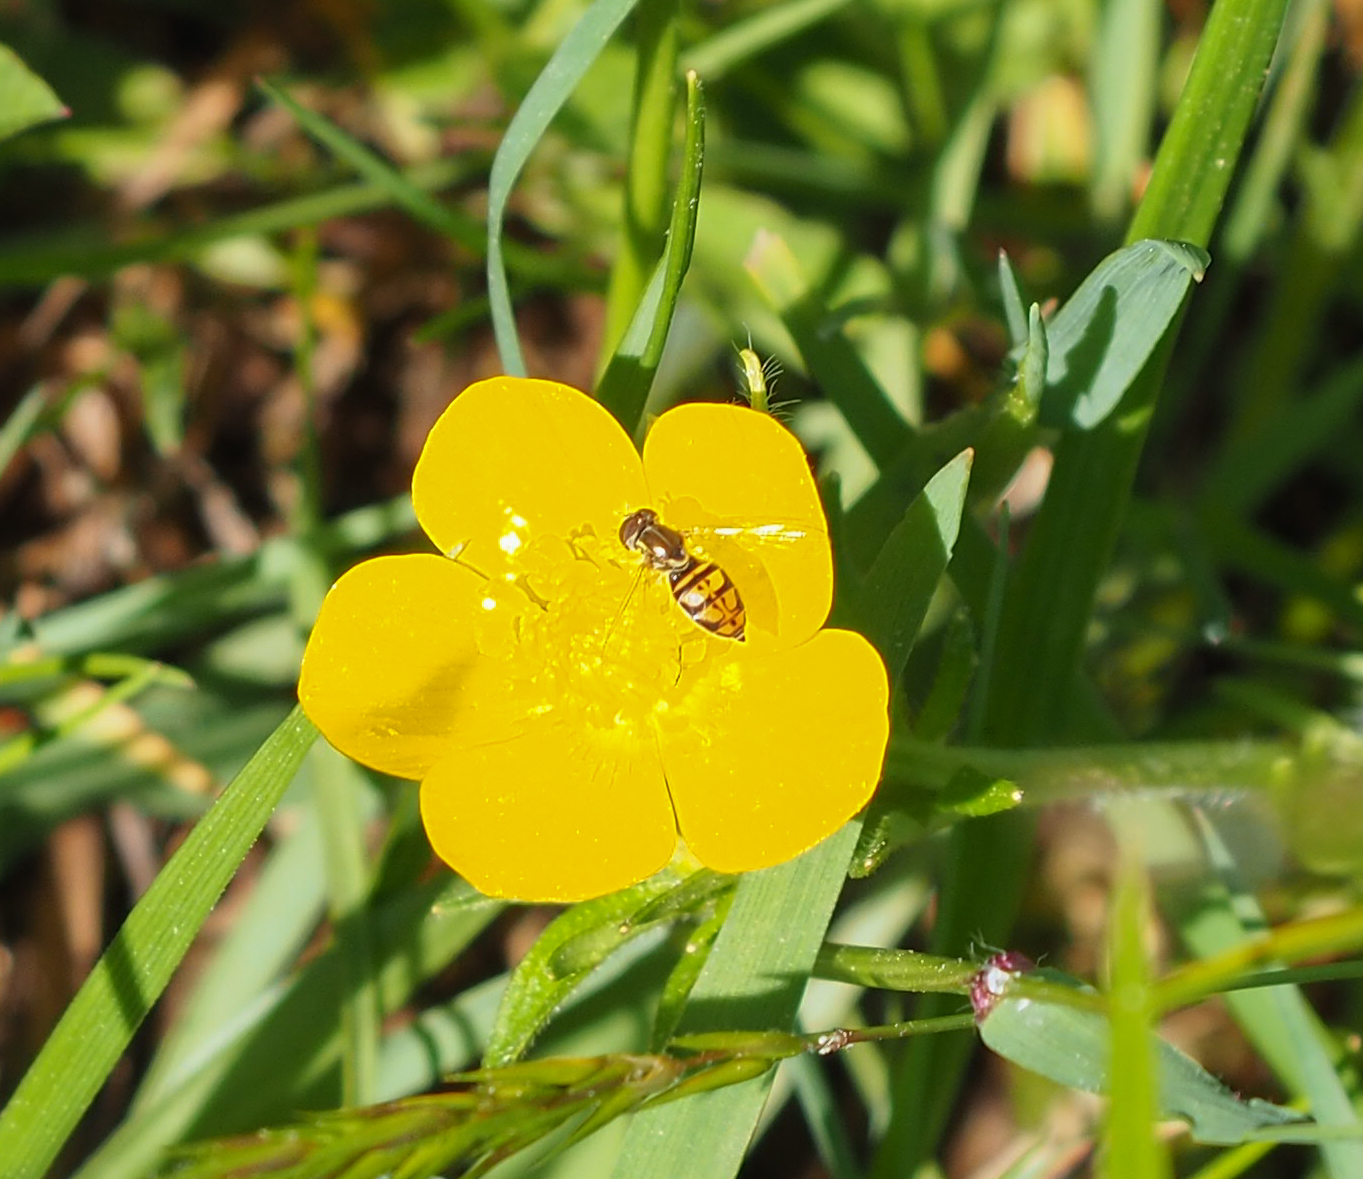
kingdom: Animalia
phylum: Arthropoda
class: Insecta
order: Diptera
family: Syrphidae
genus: Toxomerus
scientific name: Toxomerus marginatus
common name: Syrphid fly
